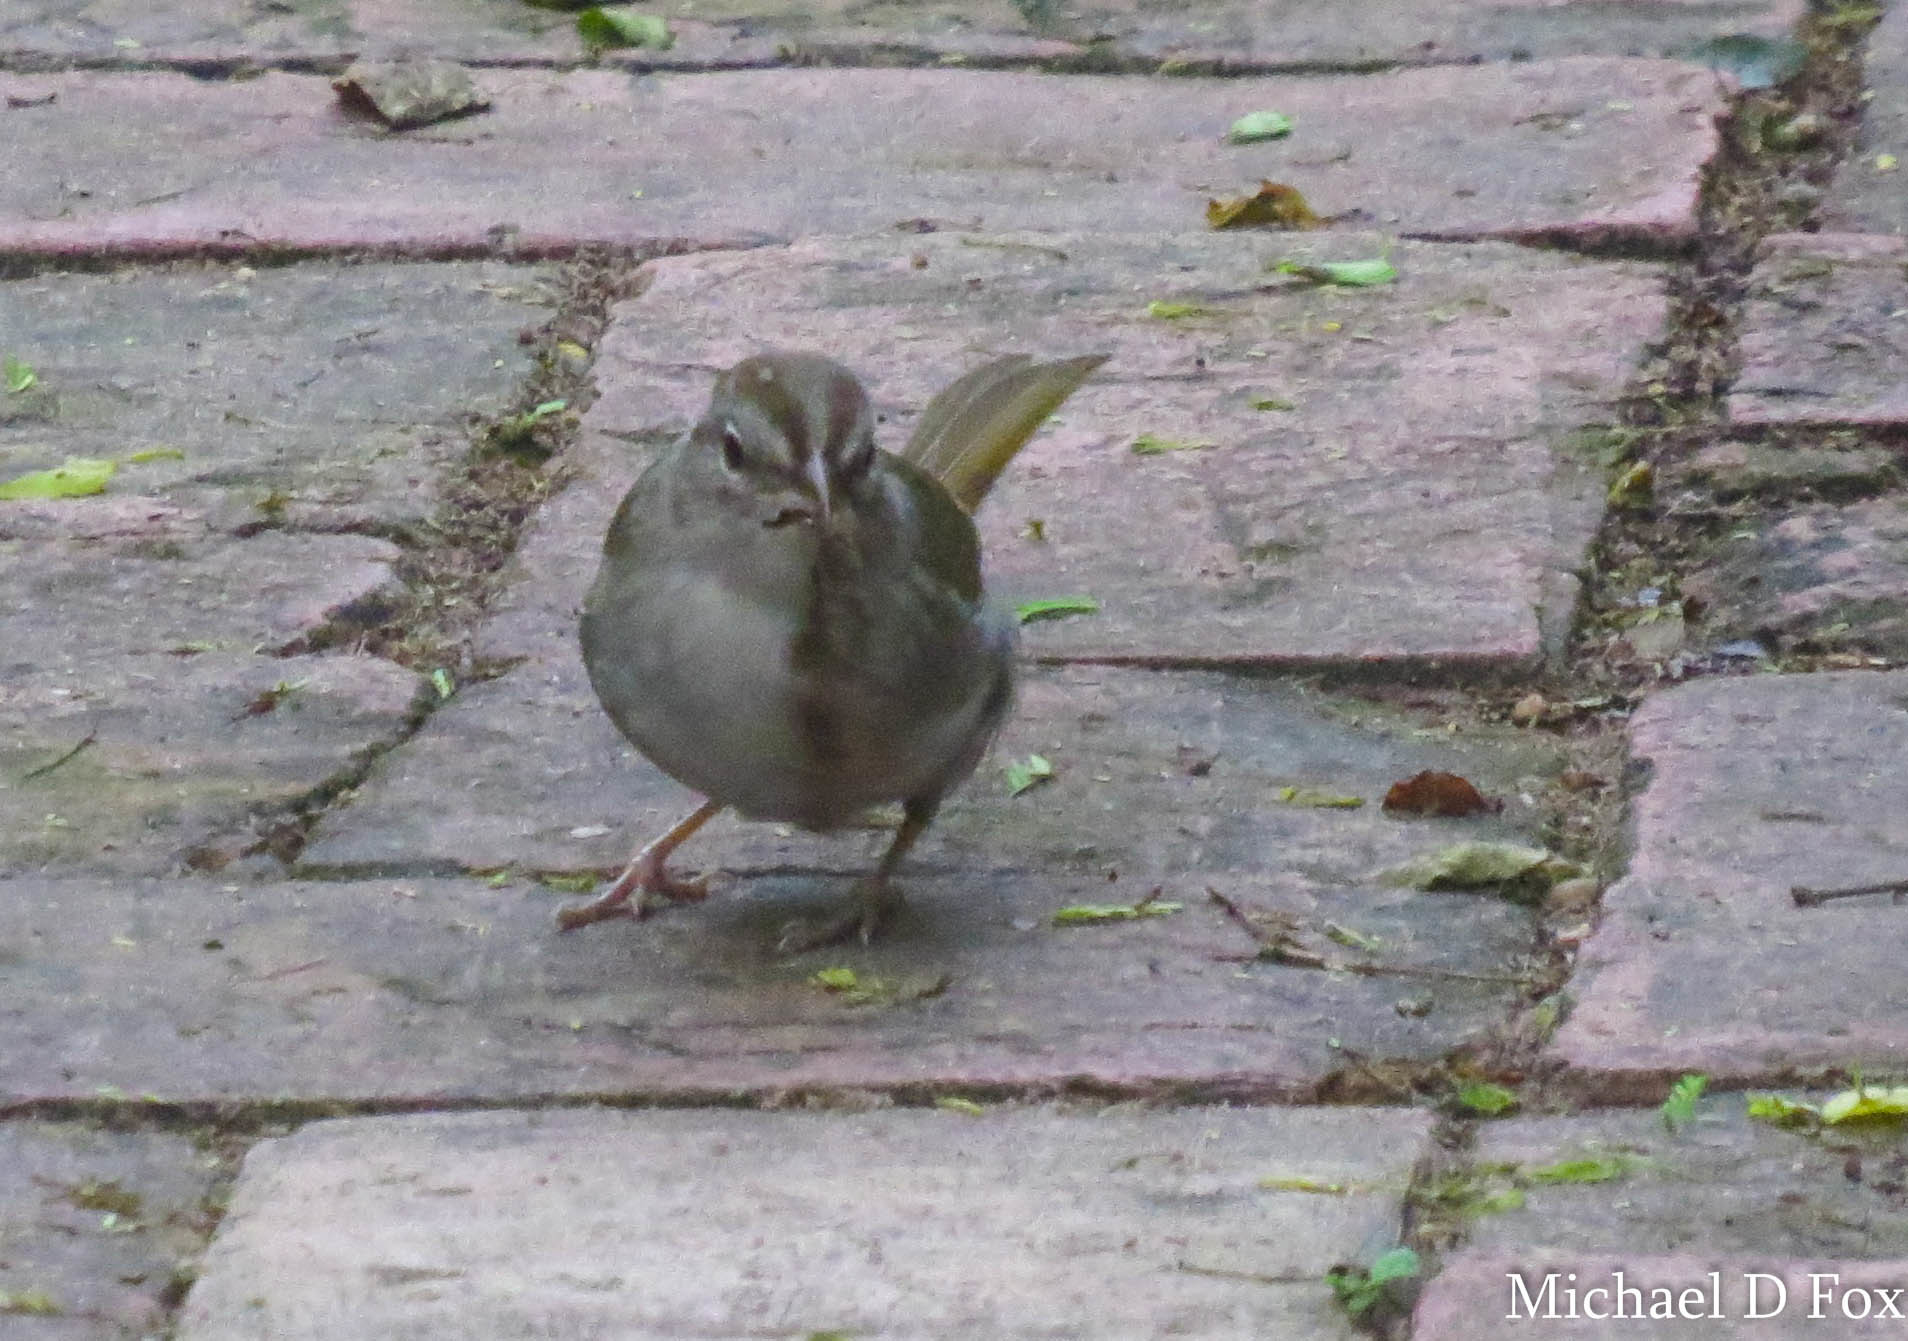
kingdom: Animalia
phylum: Chordata
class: Aves
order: Passeriformes
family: Passerellidae
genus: Arremonops
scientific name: Arremonops rufivirgatus
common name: Olive sparrow
